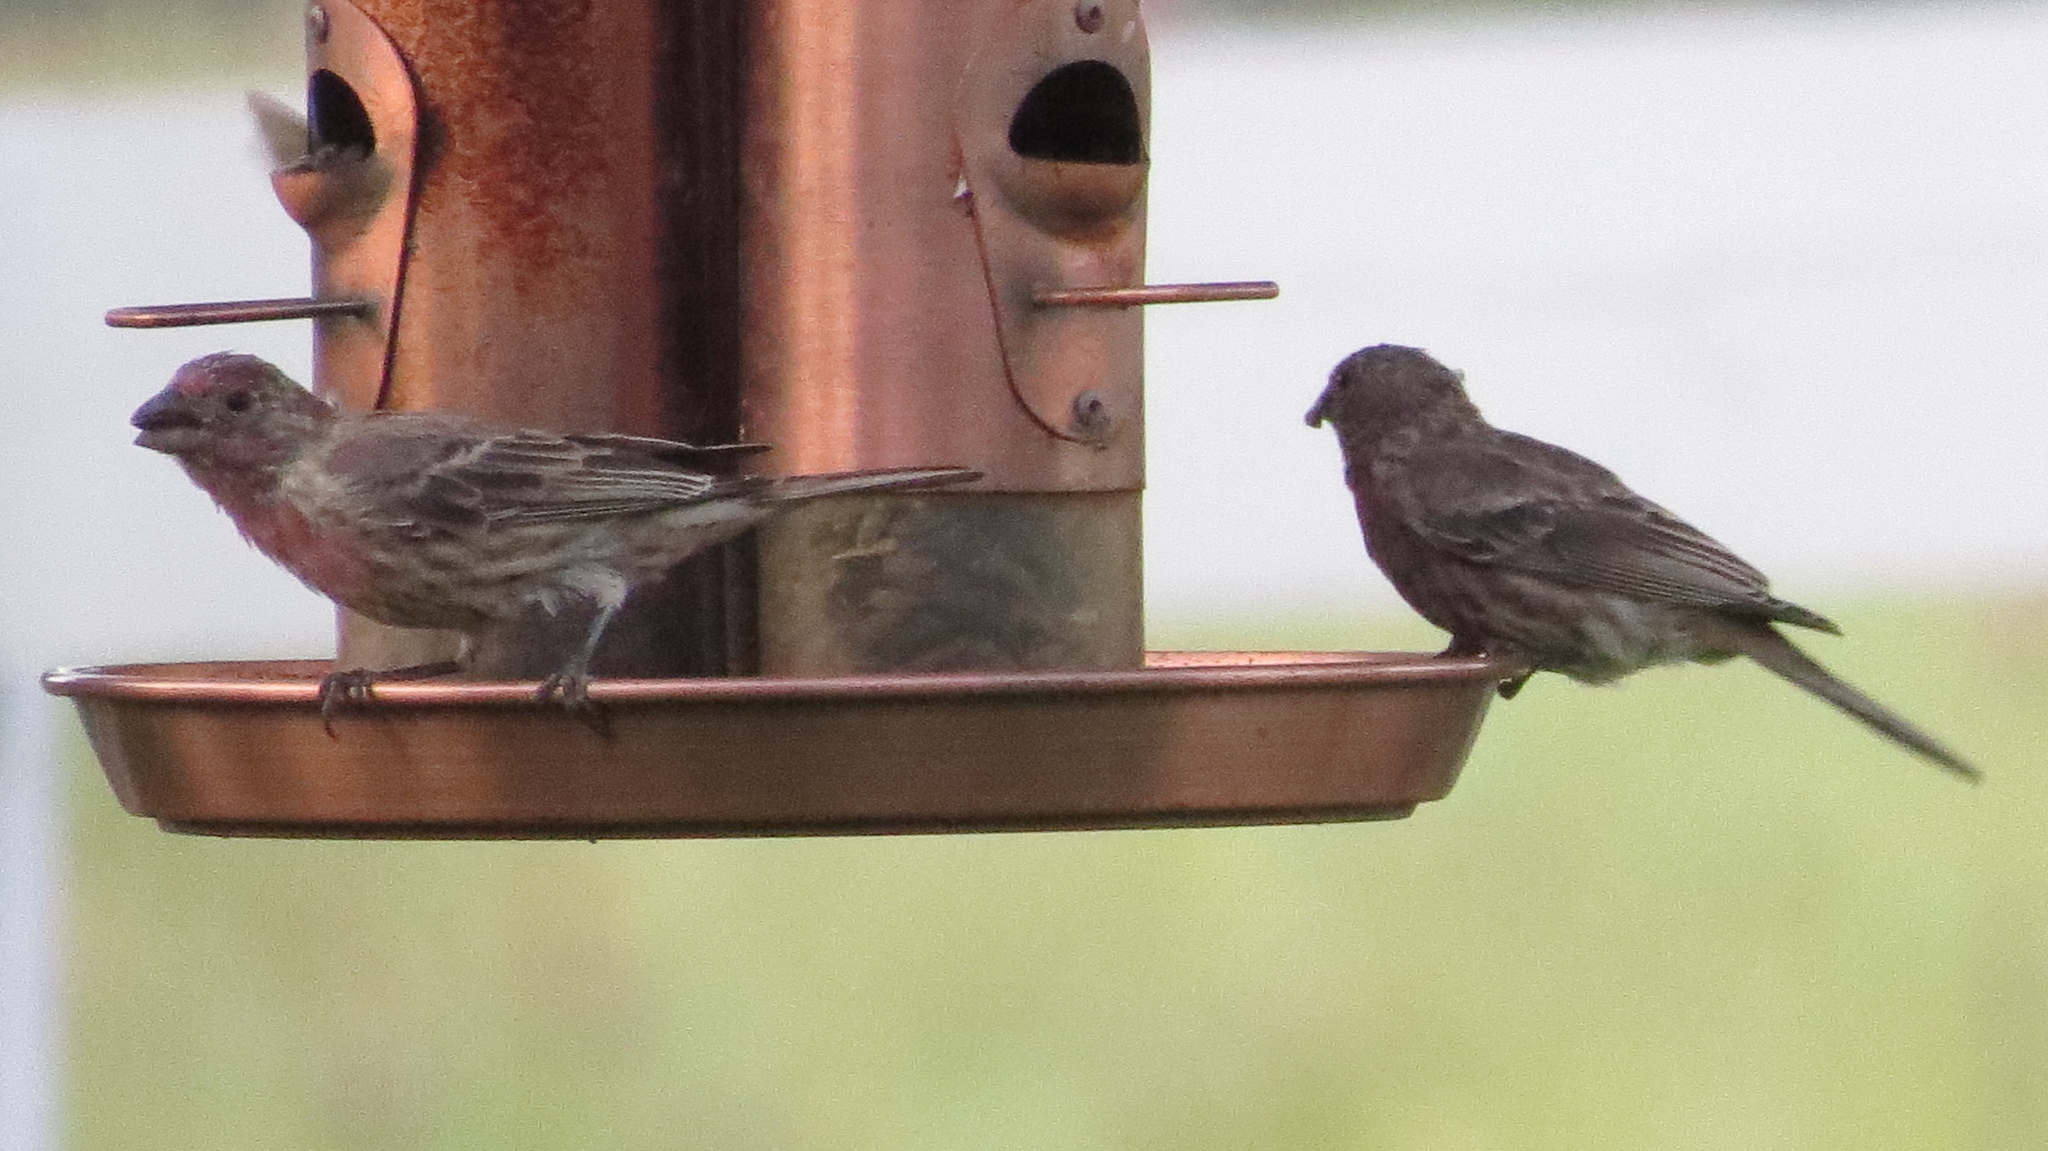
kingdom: Animalia
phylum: Chordata
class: Aves
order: Passeriformes
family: Fringillidae
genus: Haemorhous
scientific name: Haemorhous mexicanus
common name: House finch
